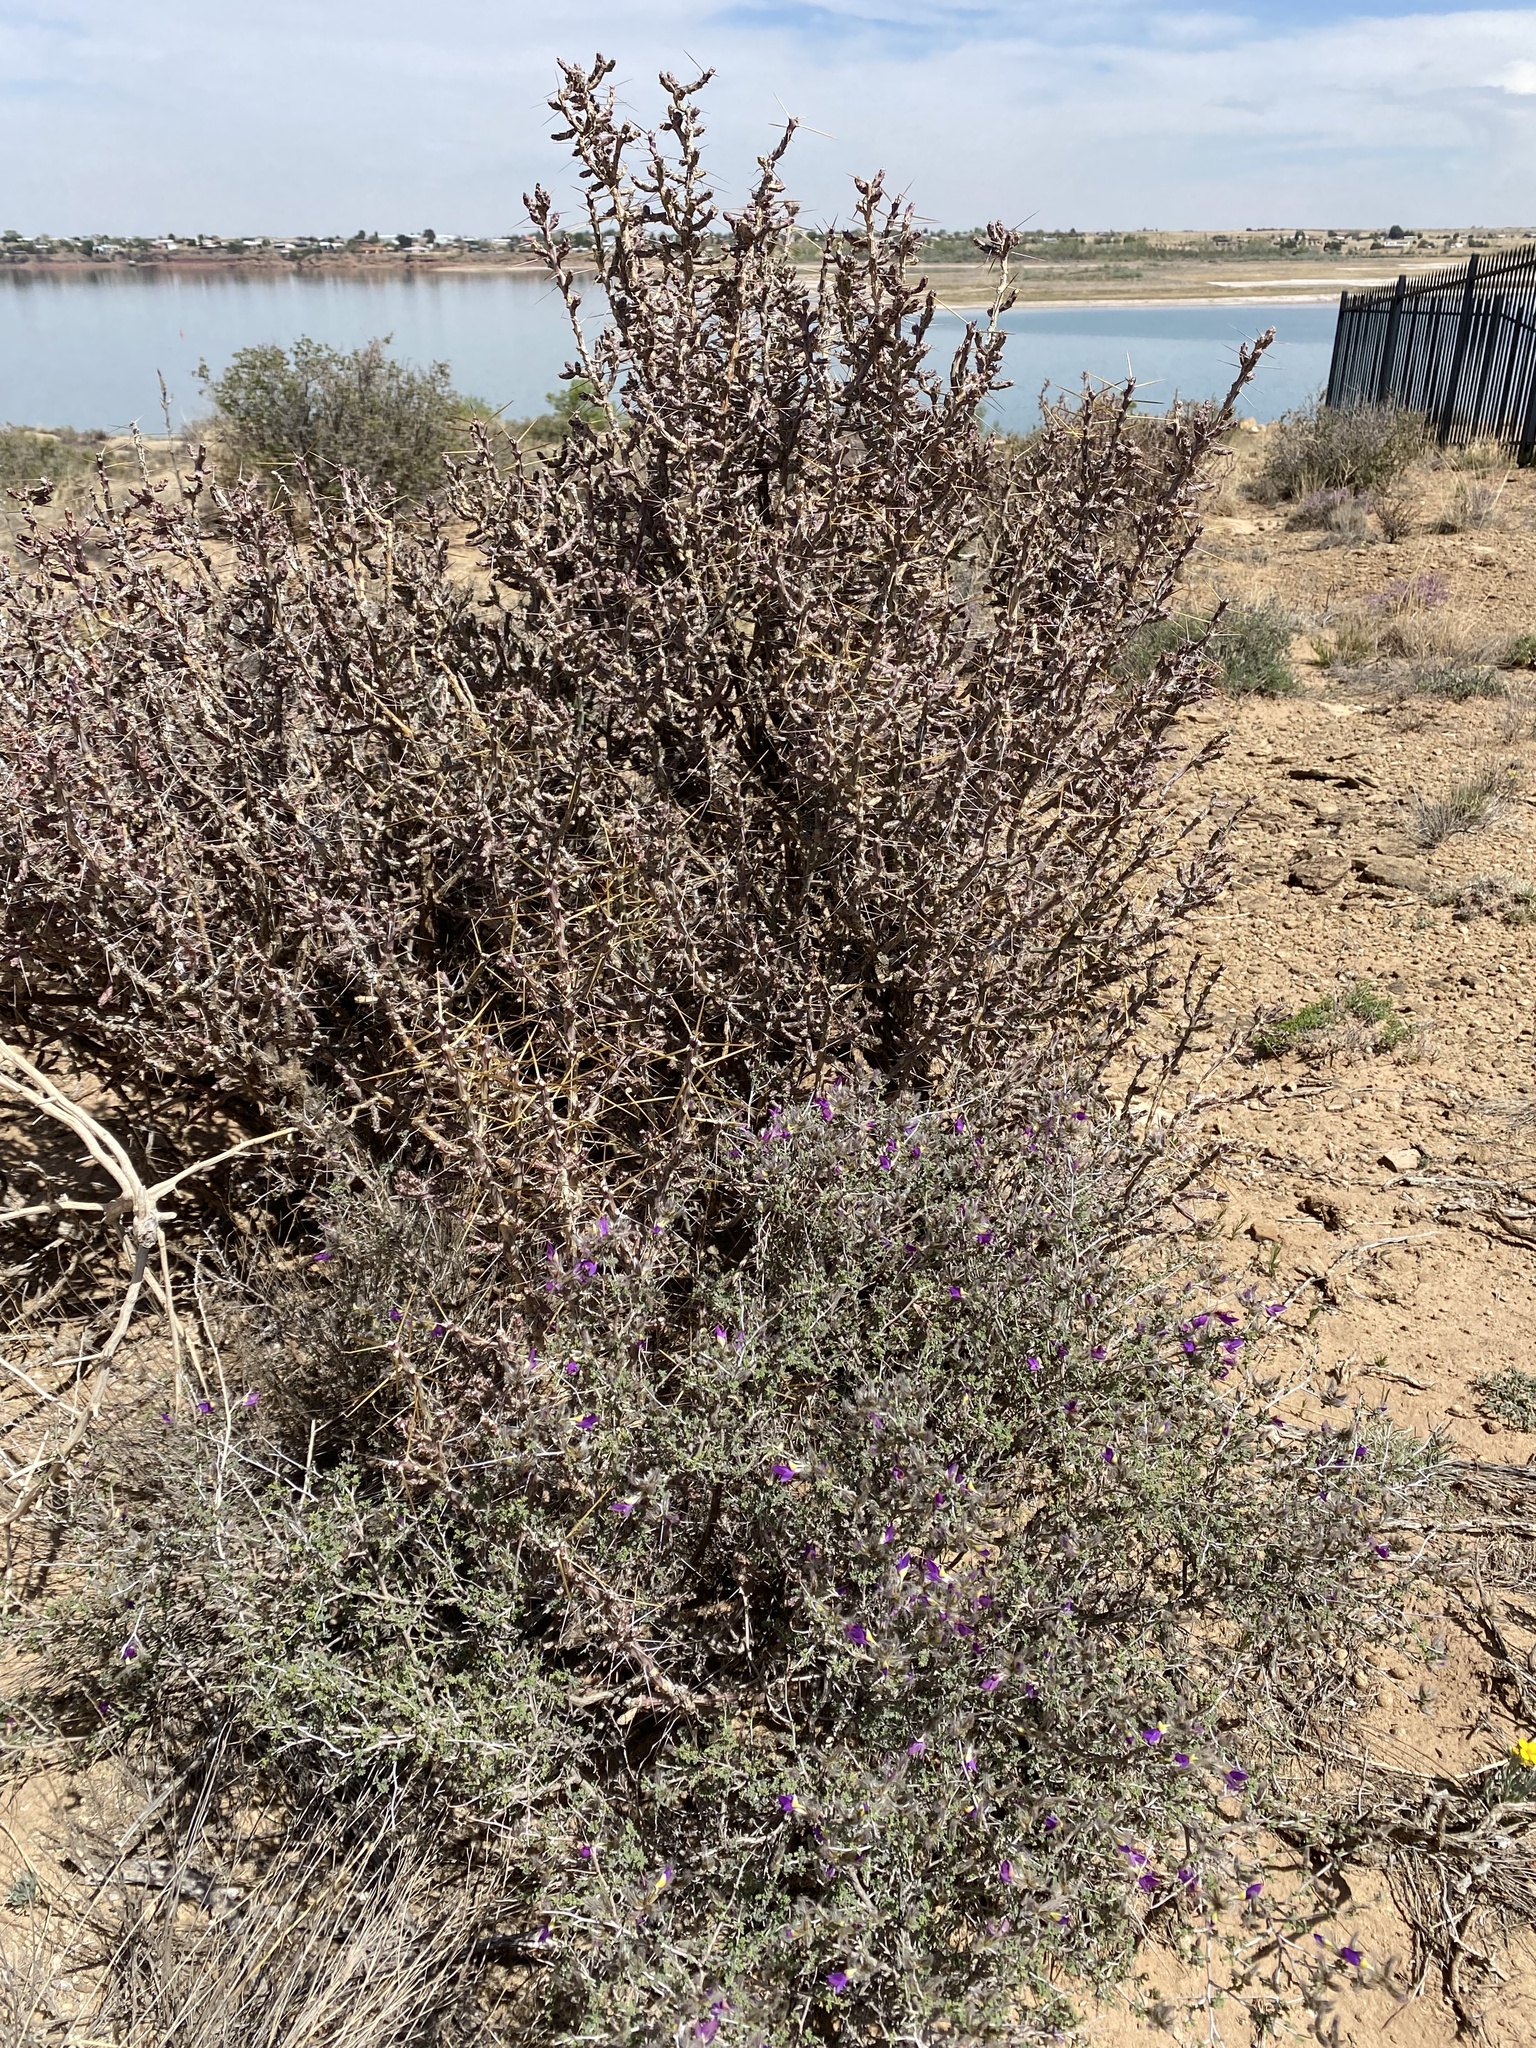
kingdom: Plantae
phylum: Tracheophyta
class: Magnoliopsida
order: Fabales
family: Fabaceae
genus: Dalea
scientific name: Dalea formosa
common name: Feather-plume dalea
